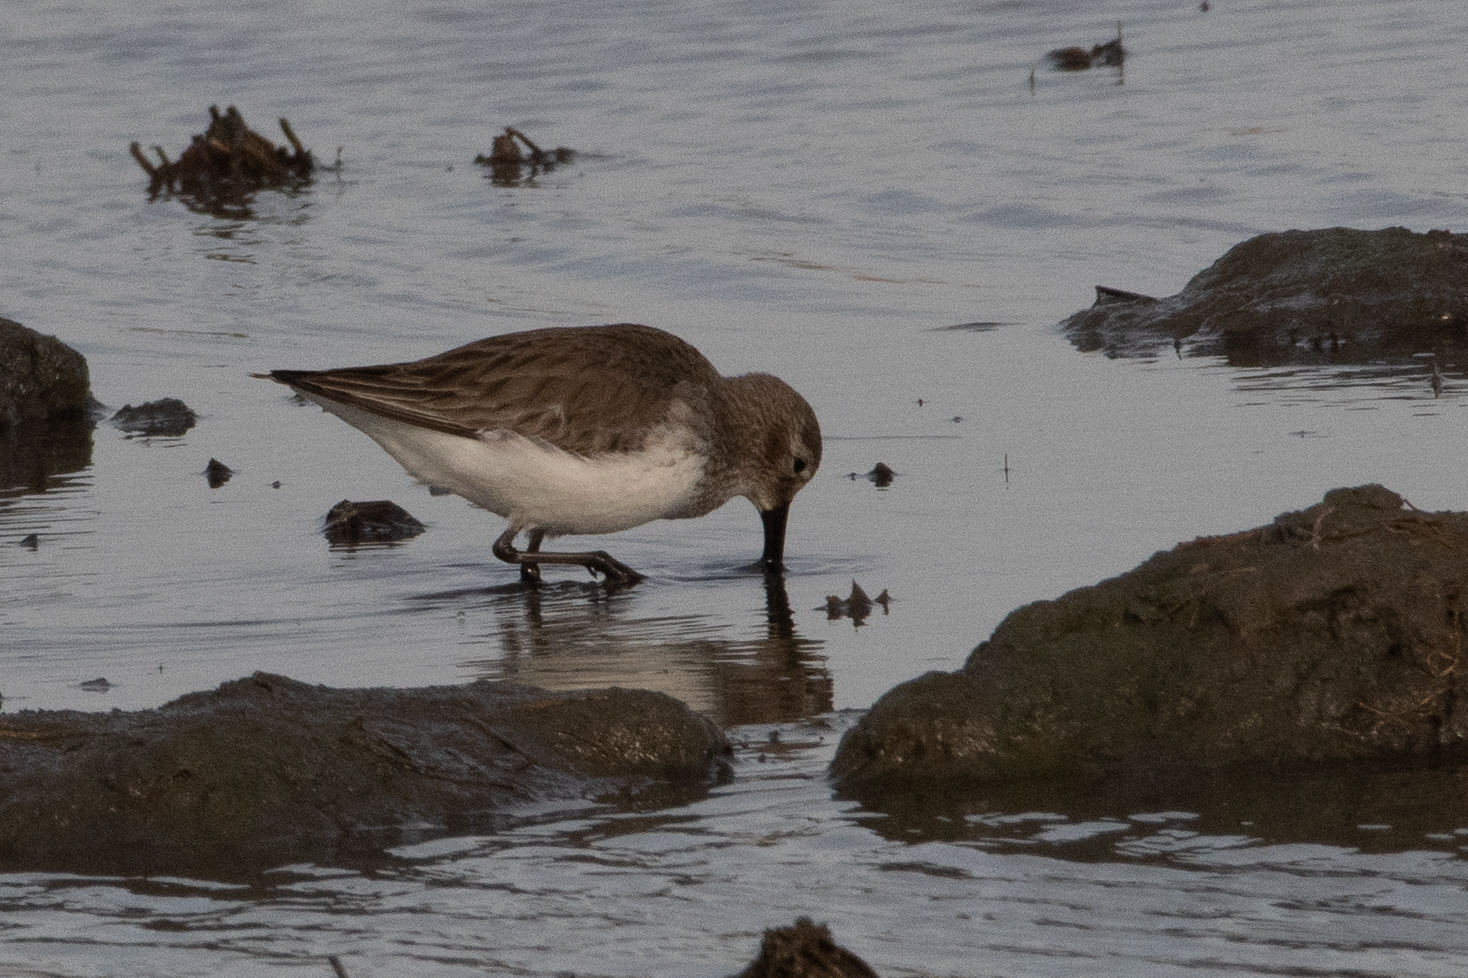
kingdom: Animalia
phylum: Chordata
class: Aves
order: Charadriiformes
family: Scolopacidae
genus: Calidris
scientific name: Calidris alpina
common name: Dunlin
